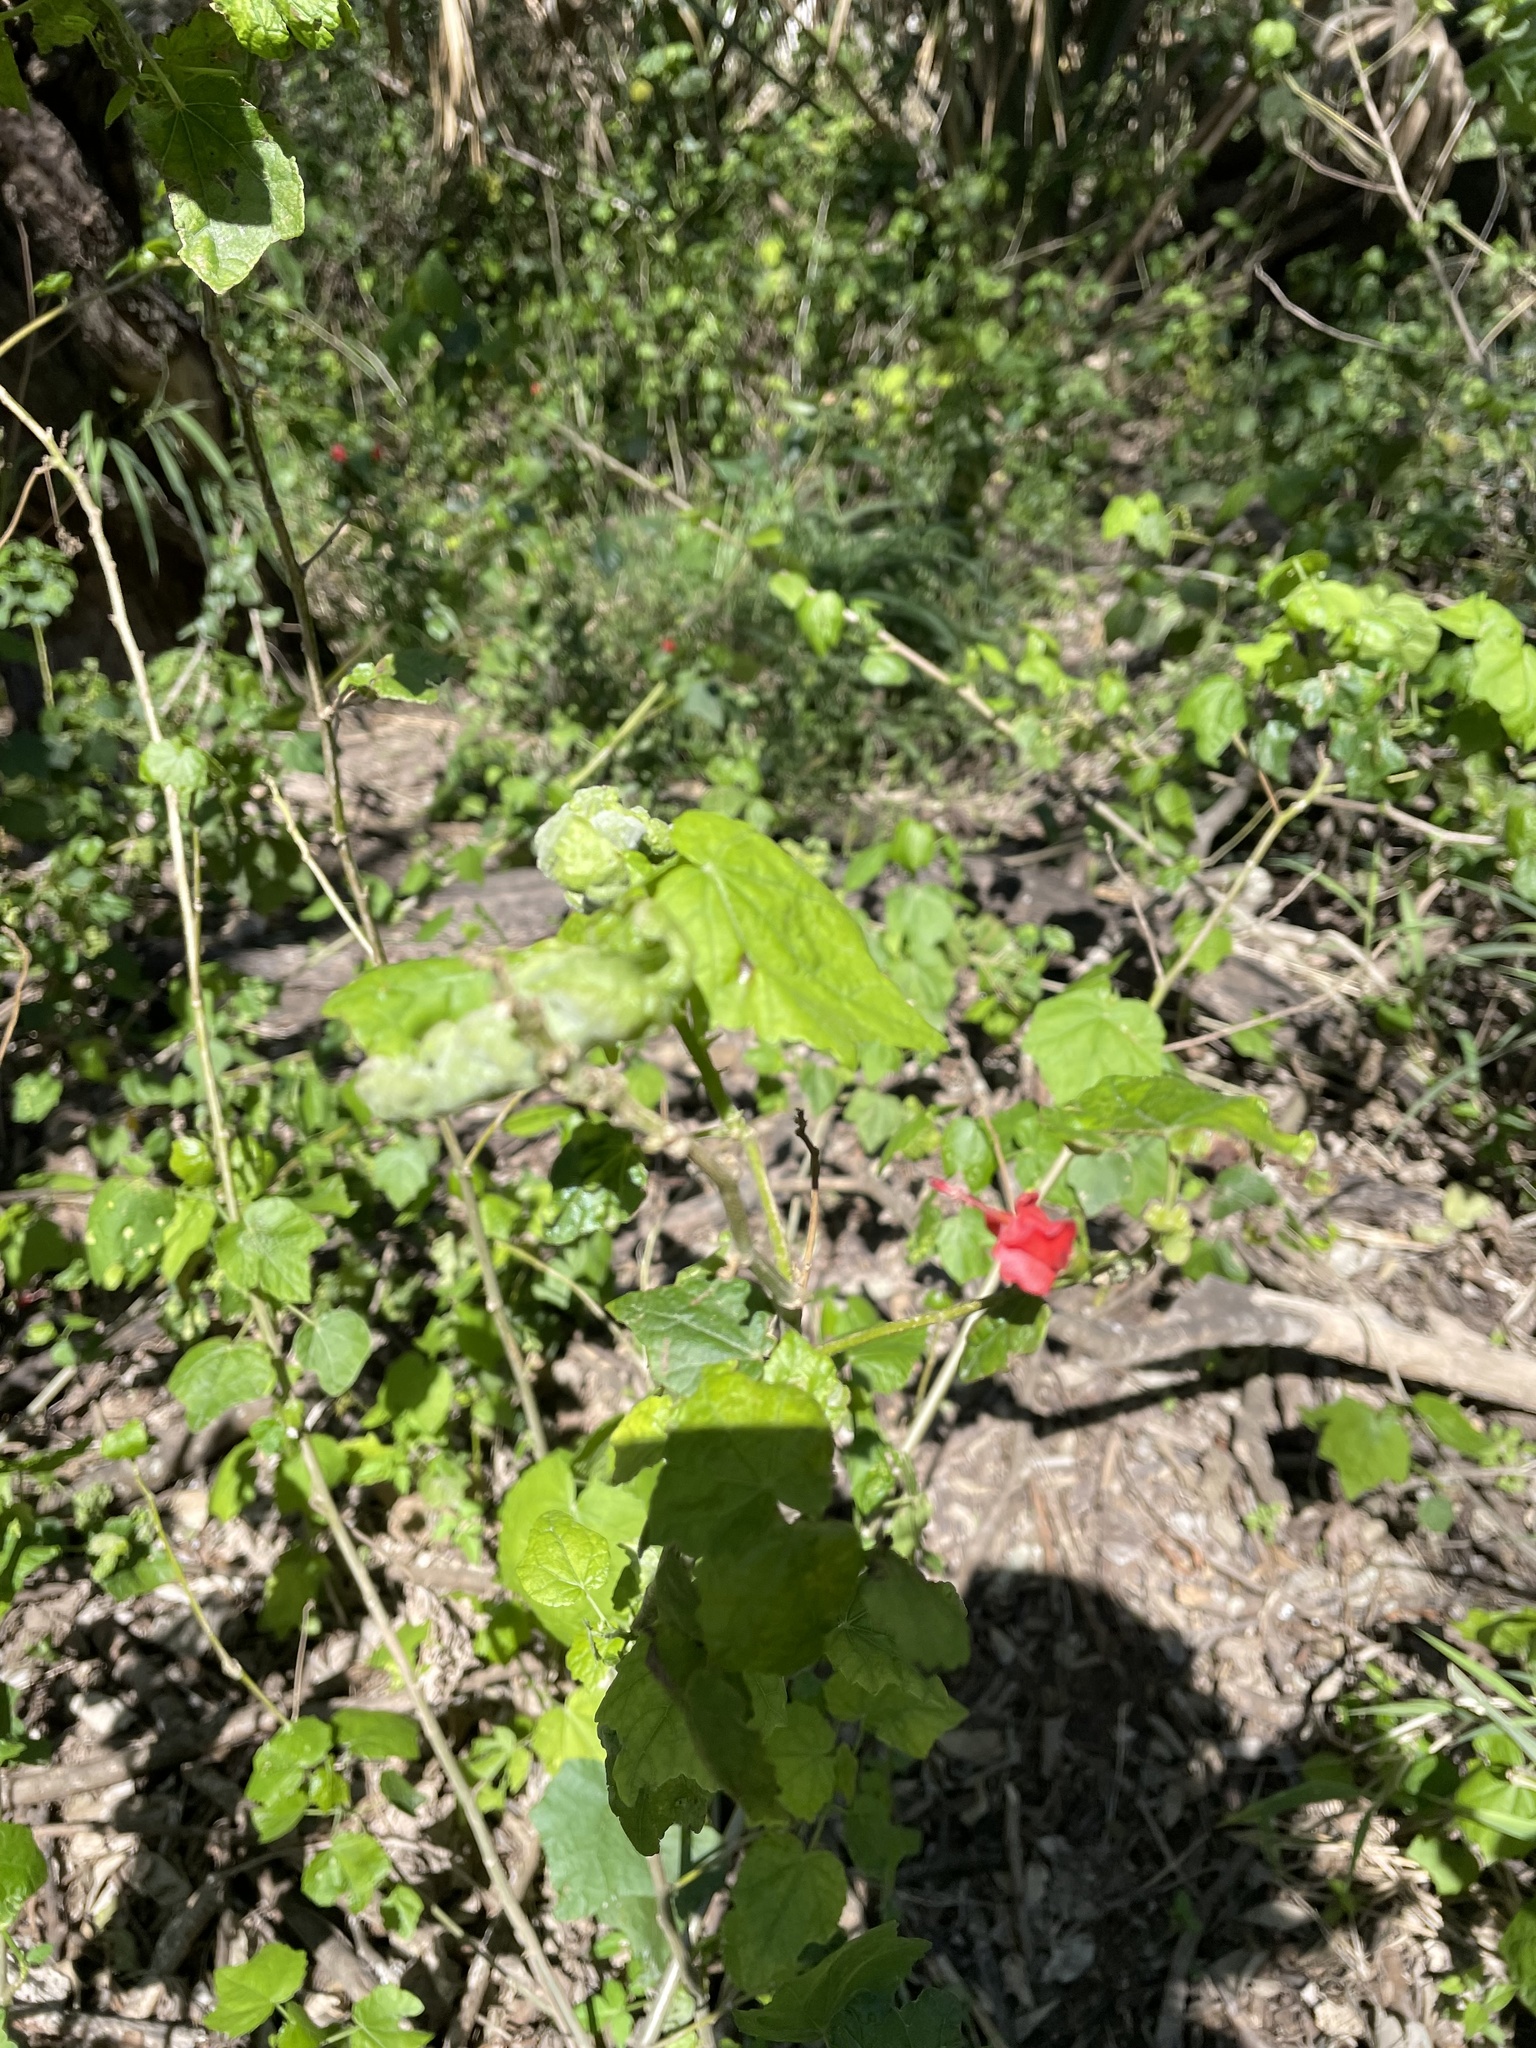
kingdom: Plantae
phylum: Tracheophyta
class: Magnoliopsida
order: Malvales
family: Malvaceae
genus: Malvaviscus
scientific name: Malvaviscus arboreus
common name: Wax mallow
